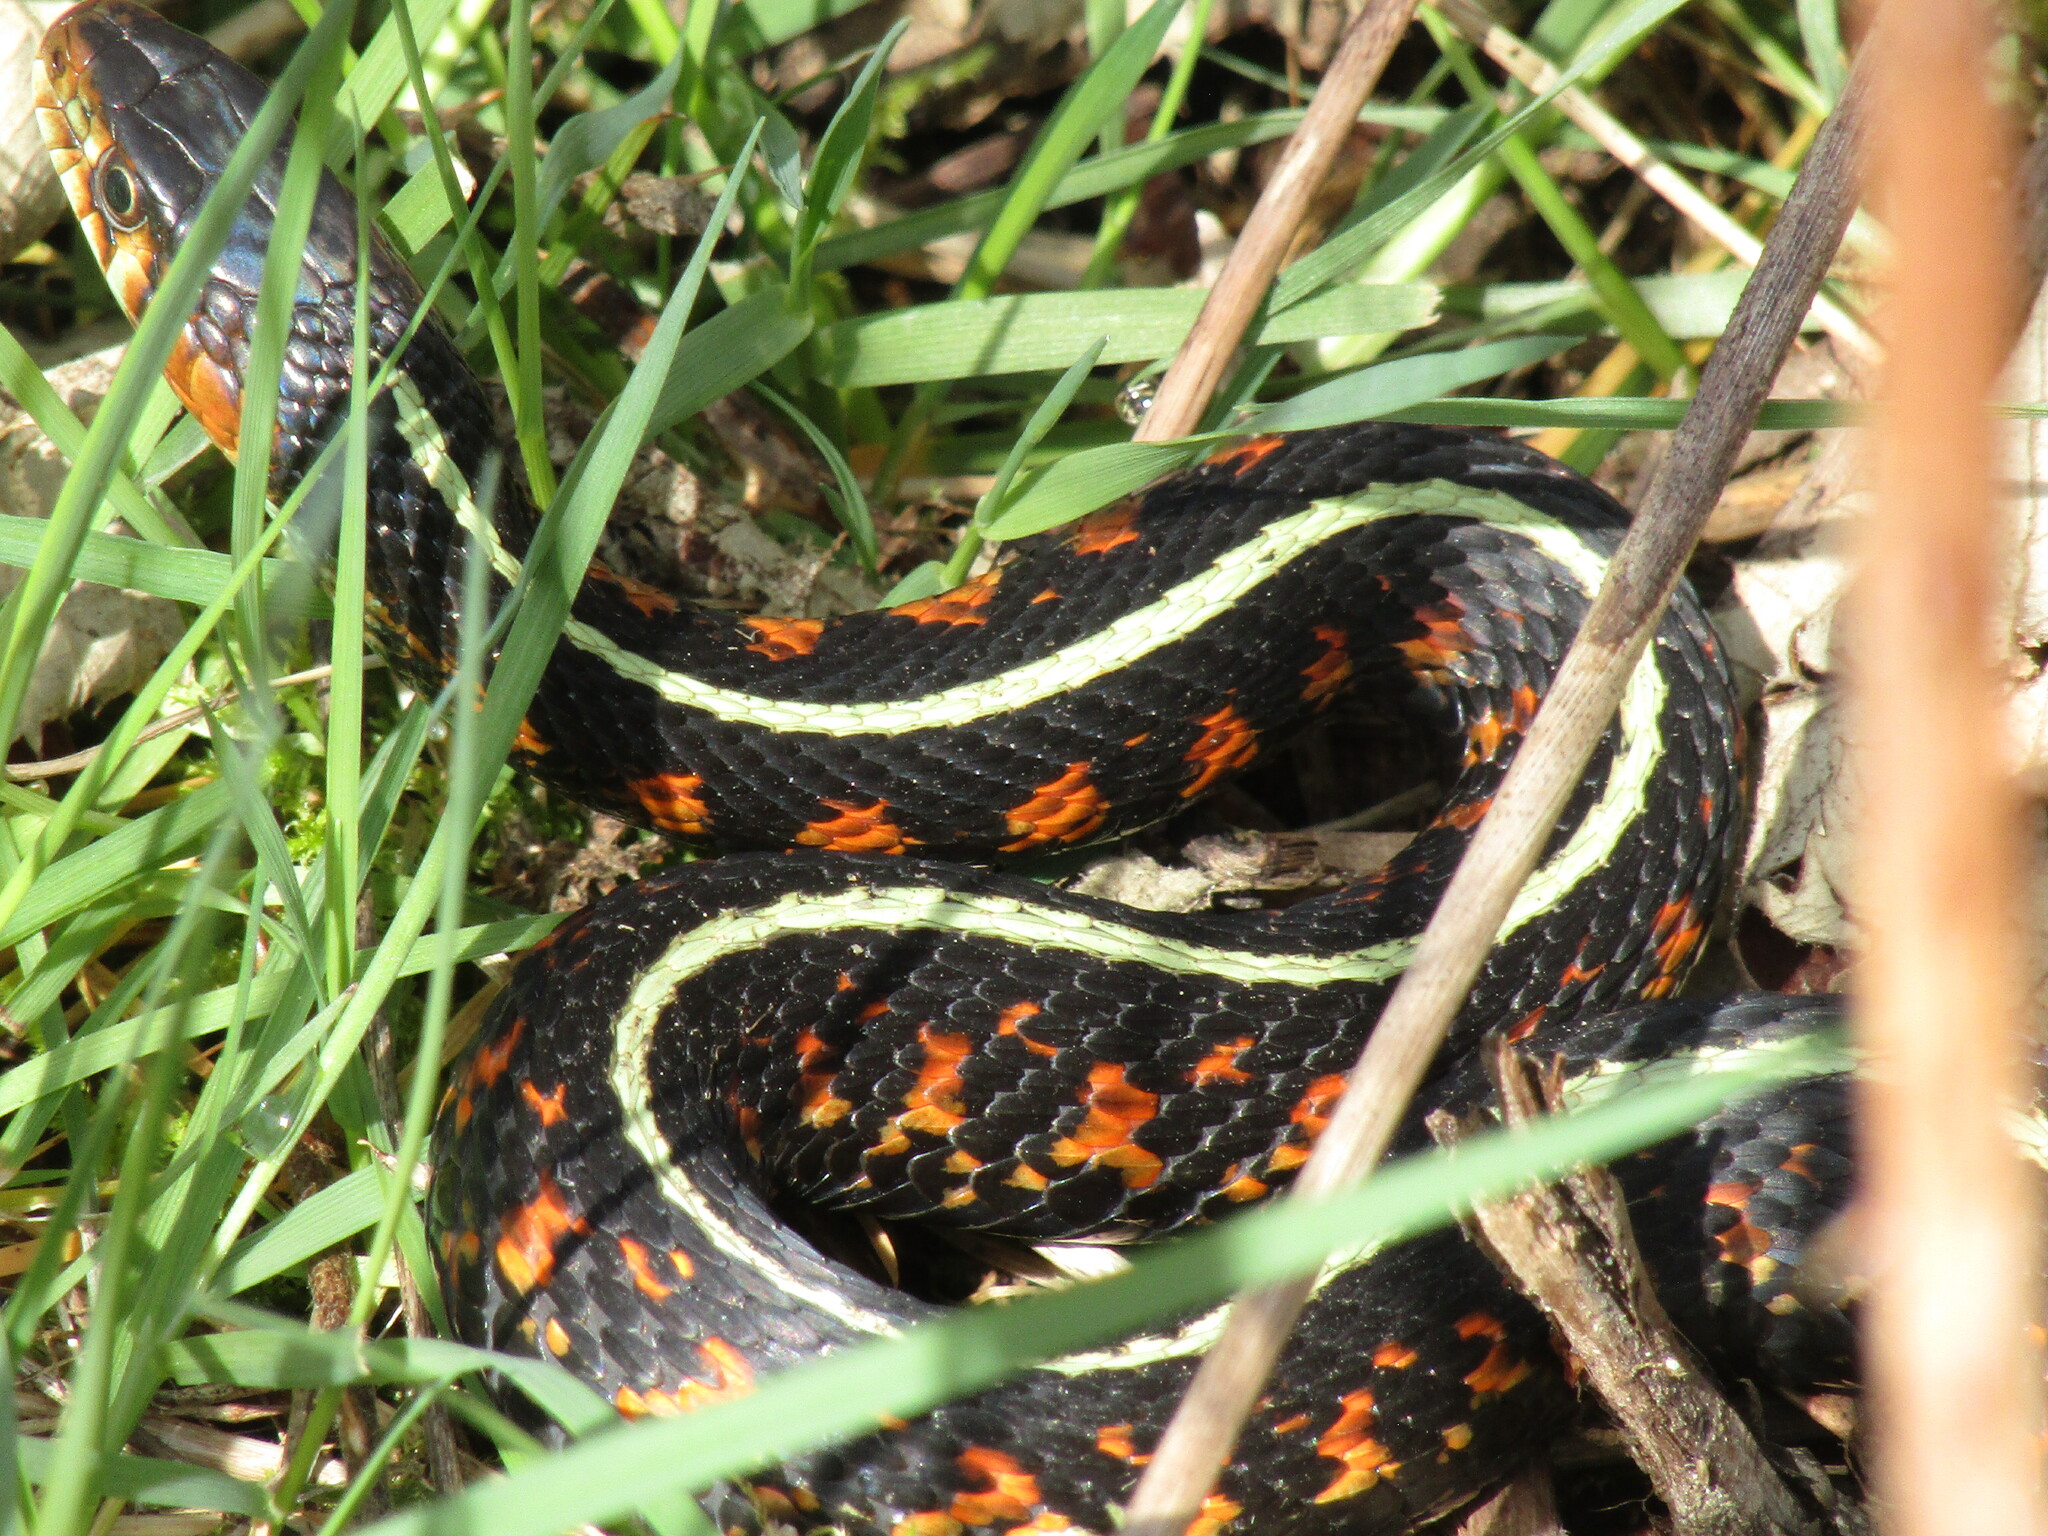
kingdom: Animalia
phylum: Chordata
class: Squamata
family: Colubridae
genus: Thamnophis
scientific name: Thamnophis sirtalis
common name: Common garter snake
